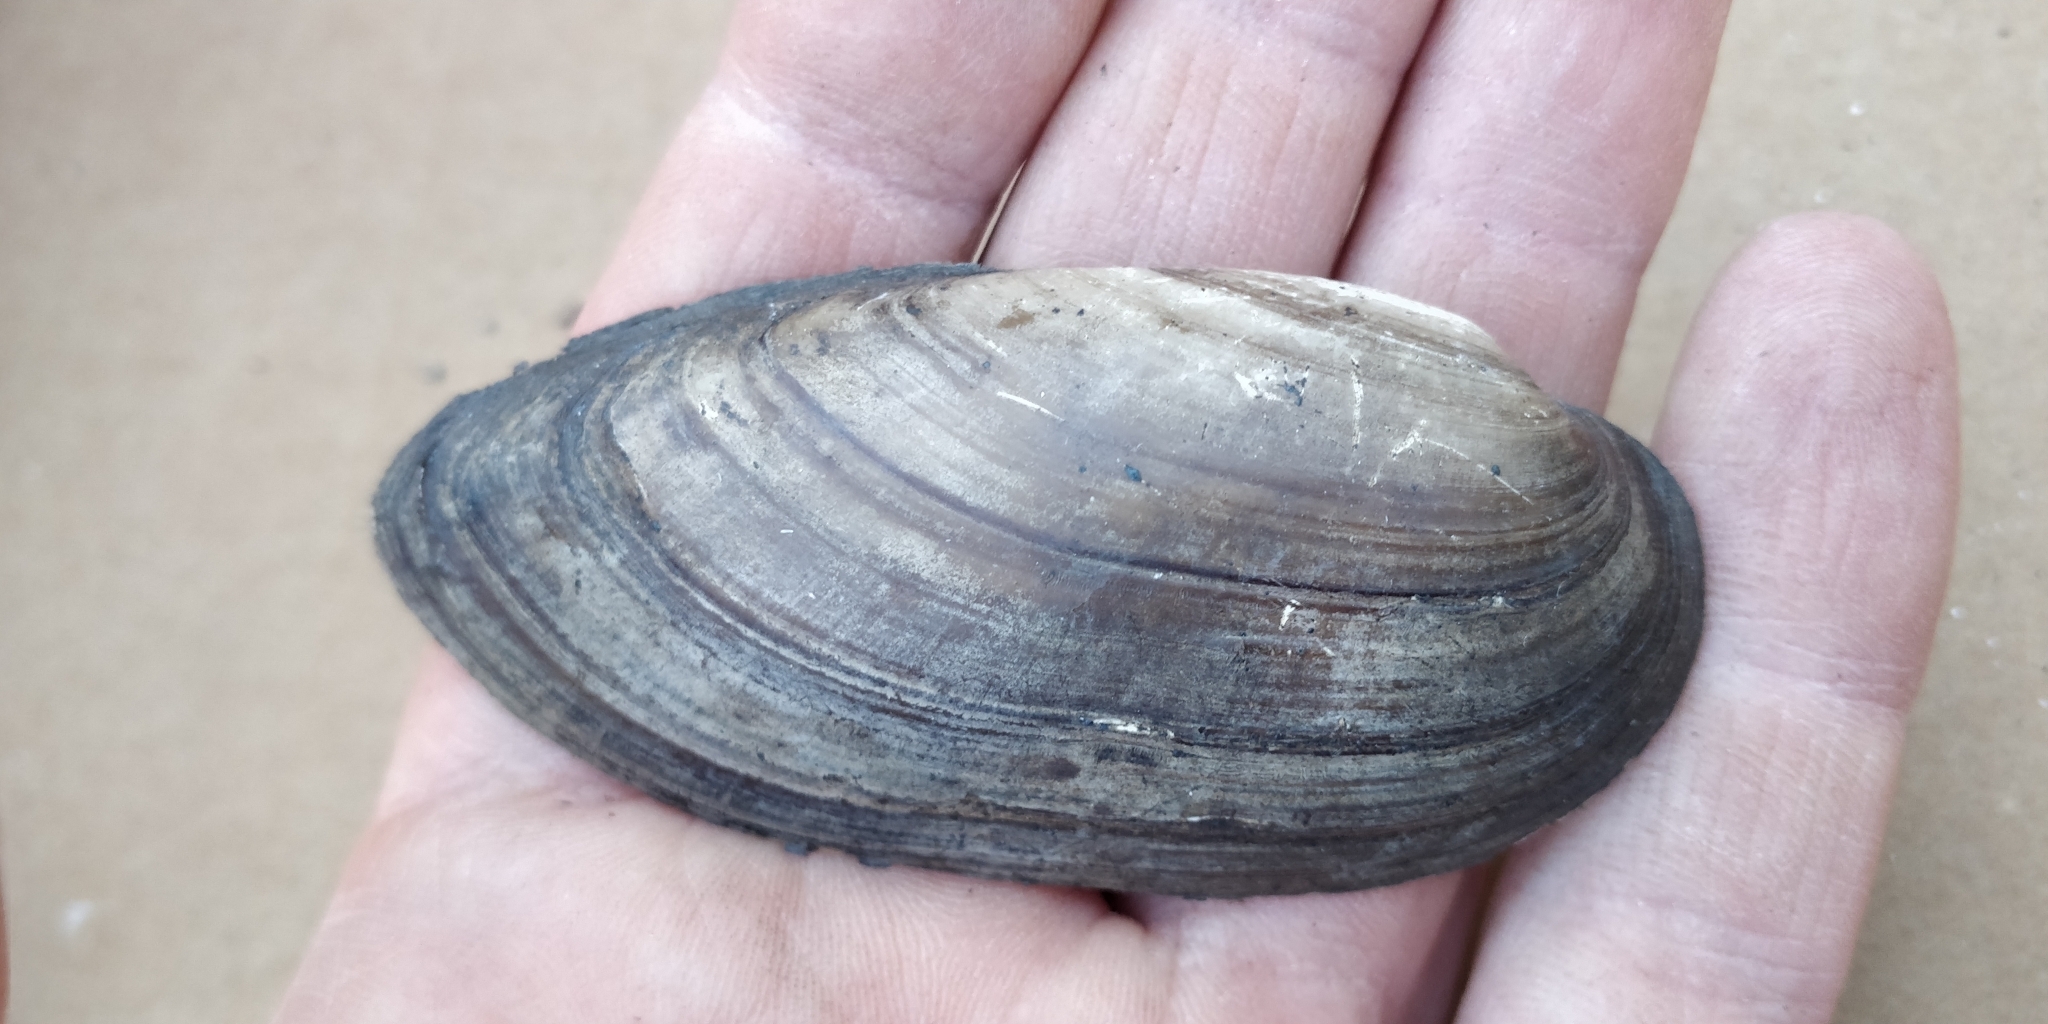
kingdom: Animalia
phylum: Mollusca
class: Bivalvia
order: Unionida
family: Unionidae
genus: Lampsilis
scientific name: Lampsilis teres
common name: Yellow sandshell
